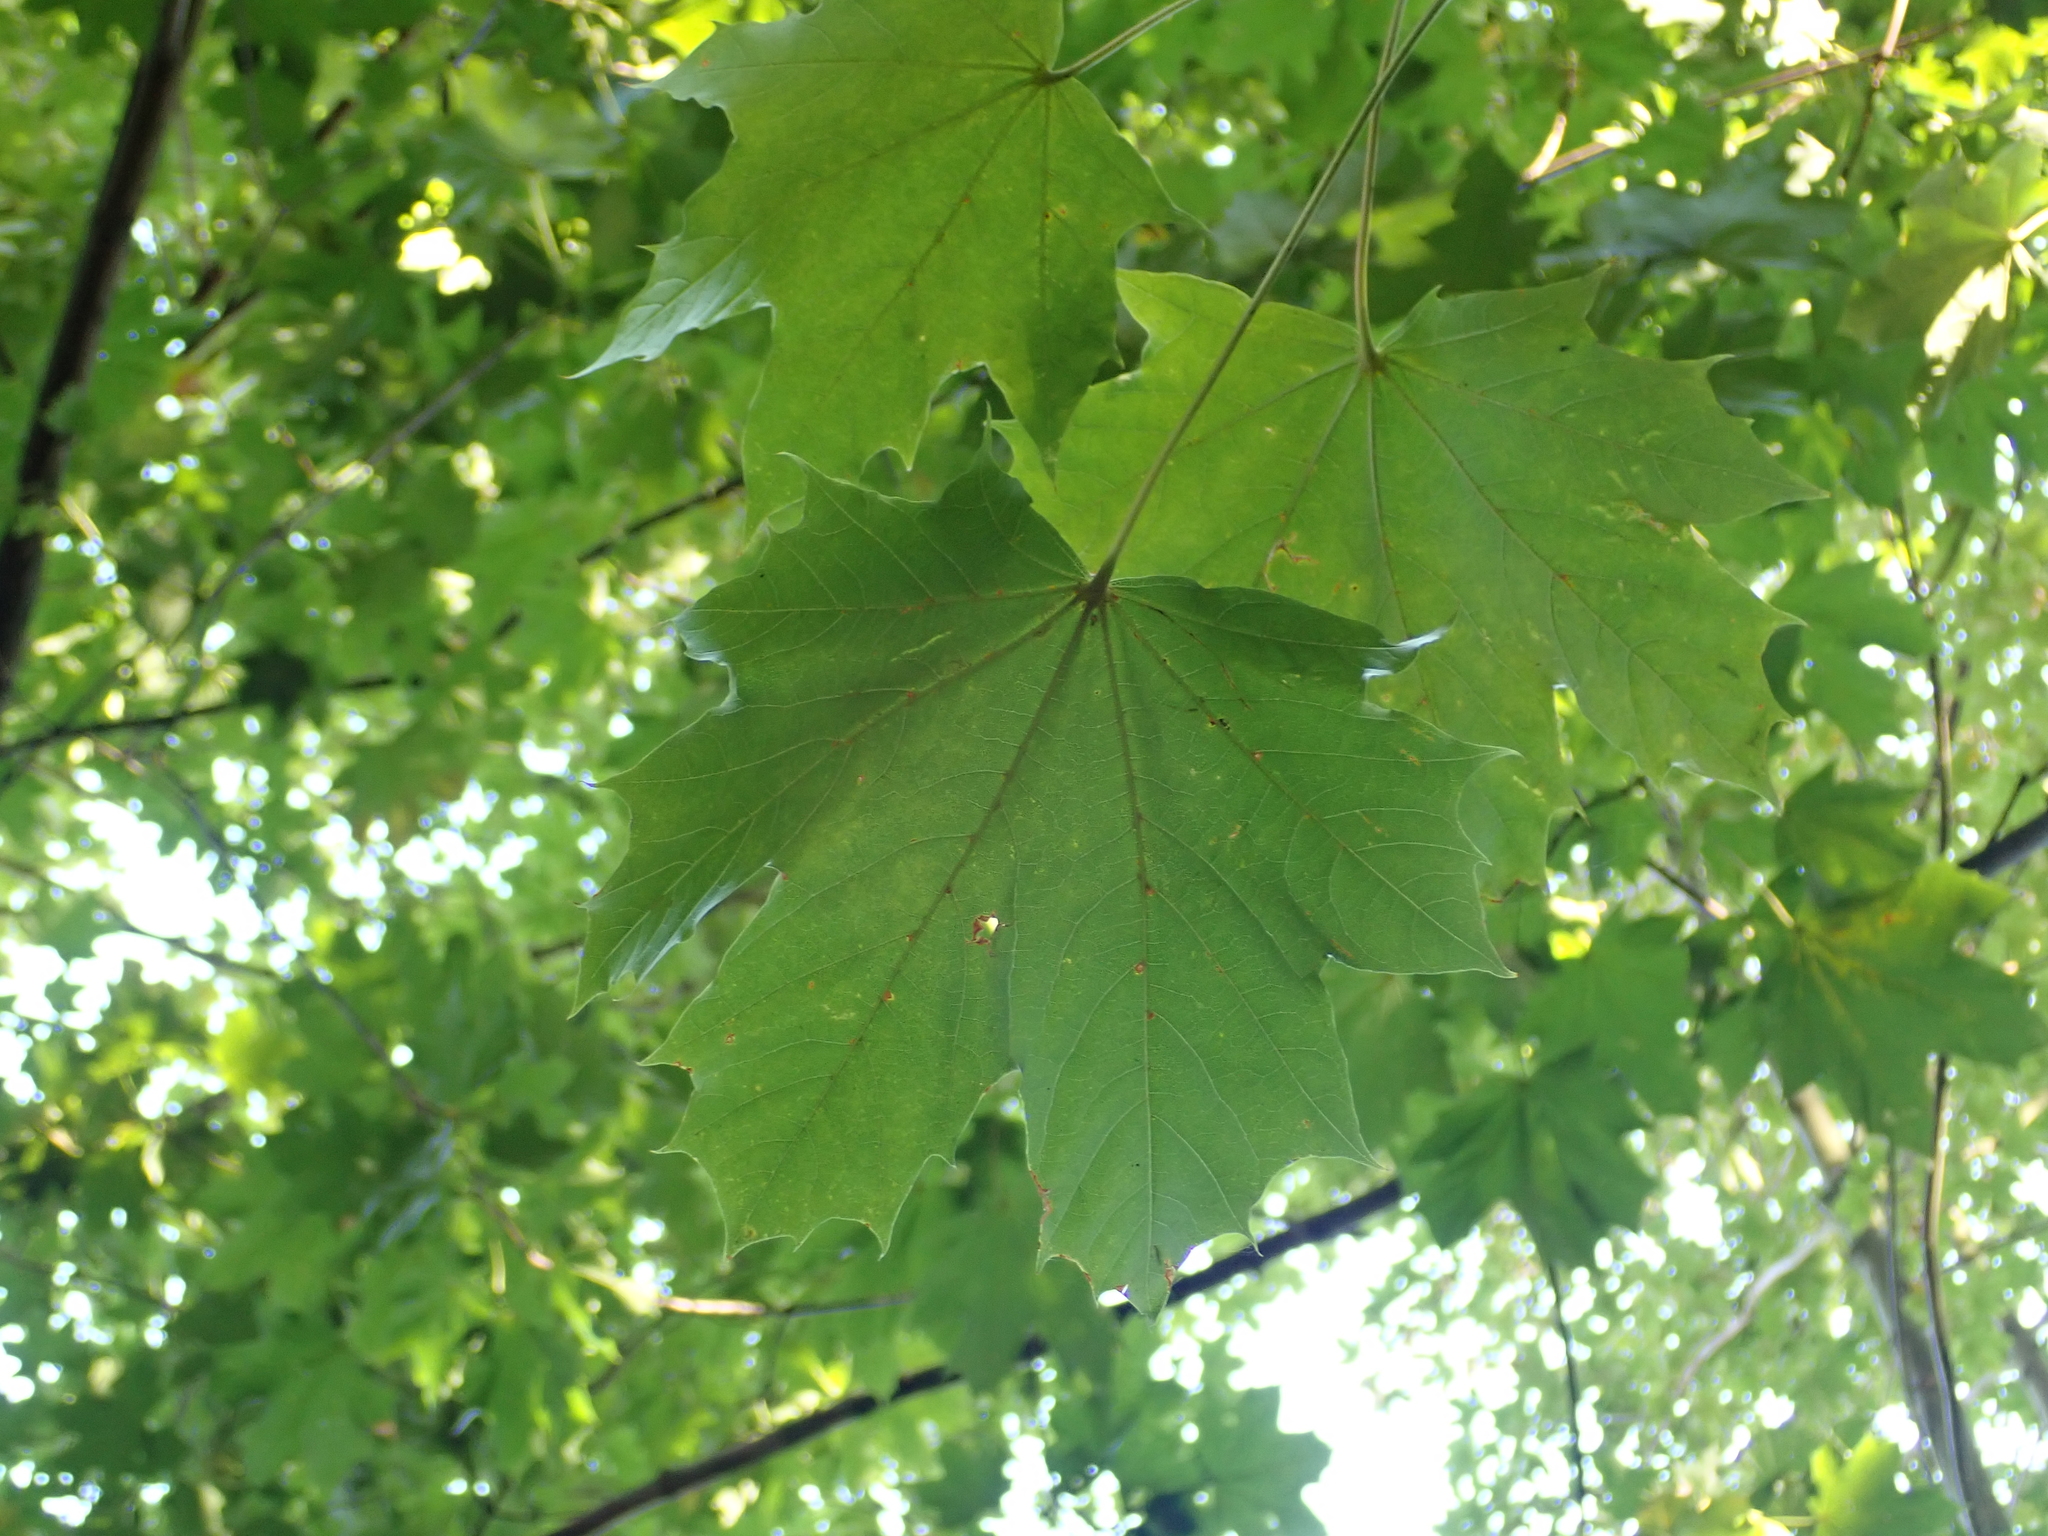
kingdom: Plantae
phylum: Tracheophyta
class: Magnoliopsida
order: Sapindales
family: Sapindaceae
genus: Acer
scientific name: Acer platanoides
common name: Norway maple
